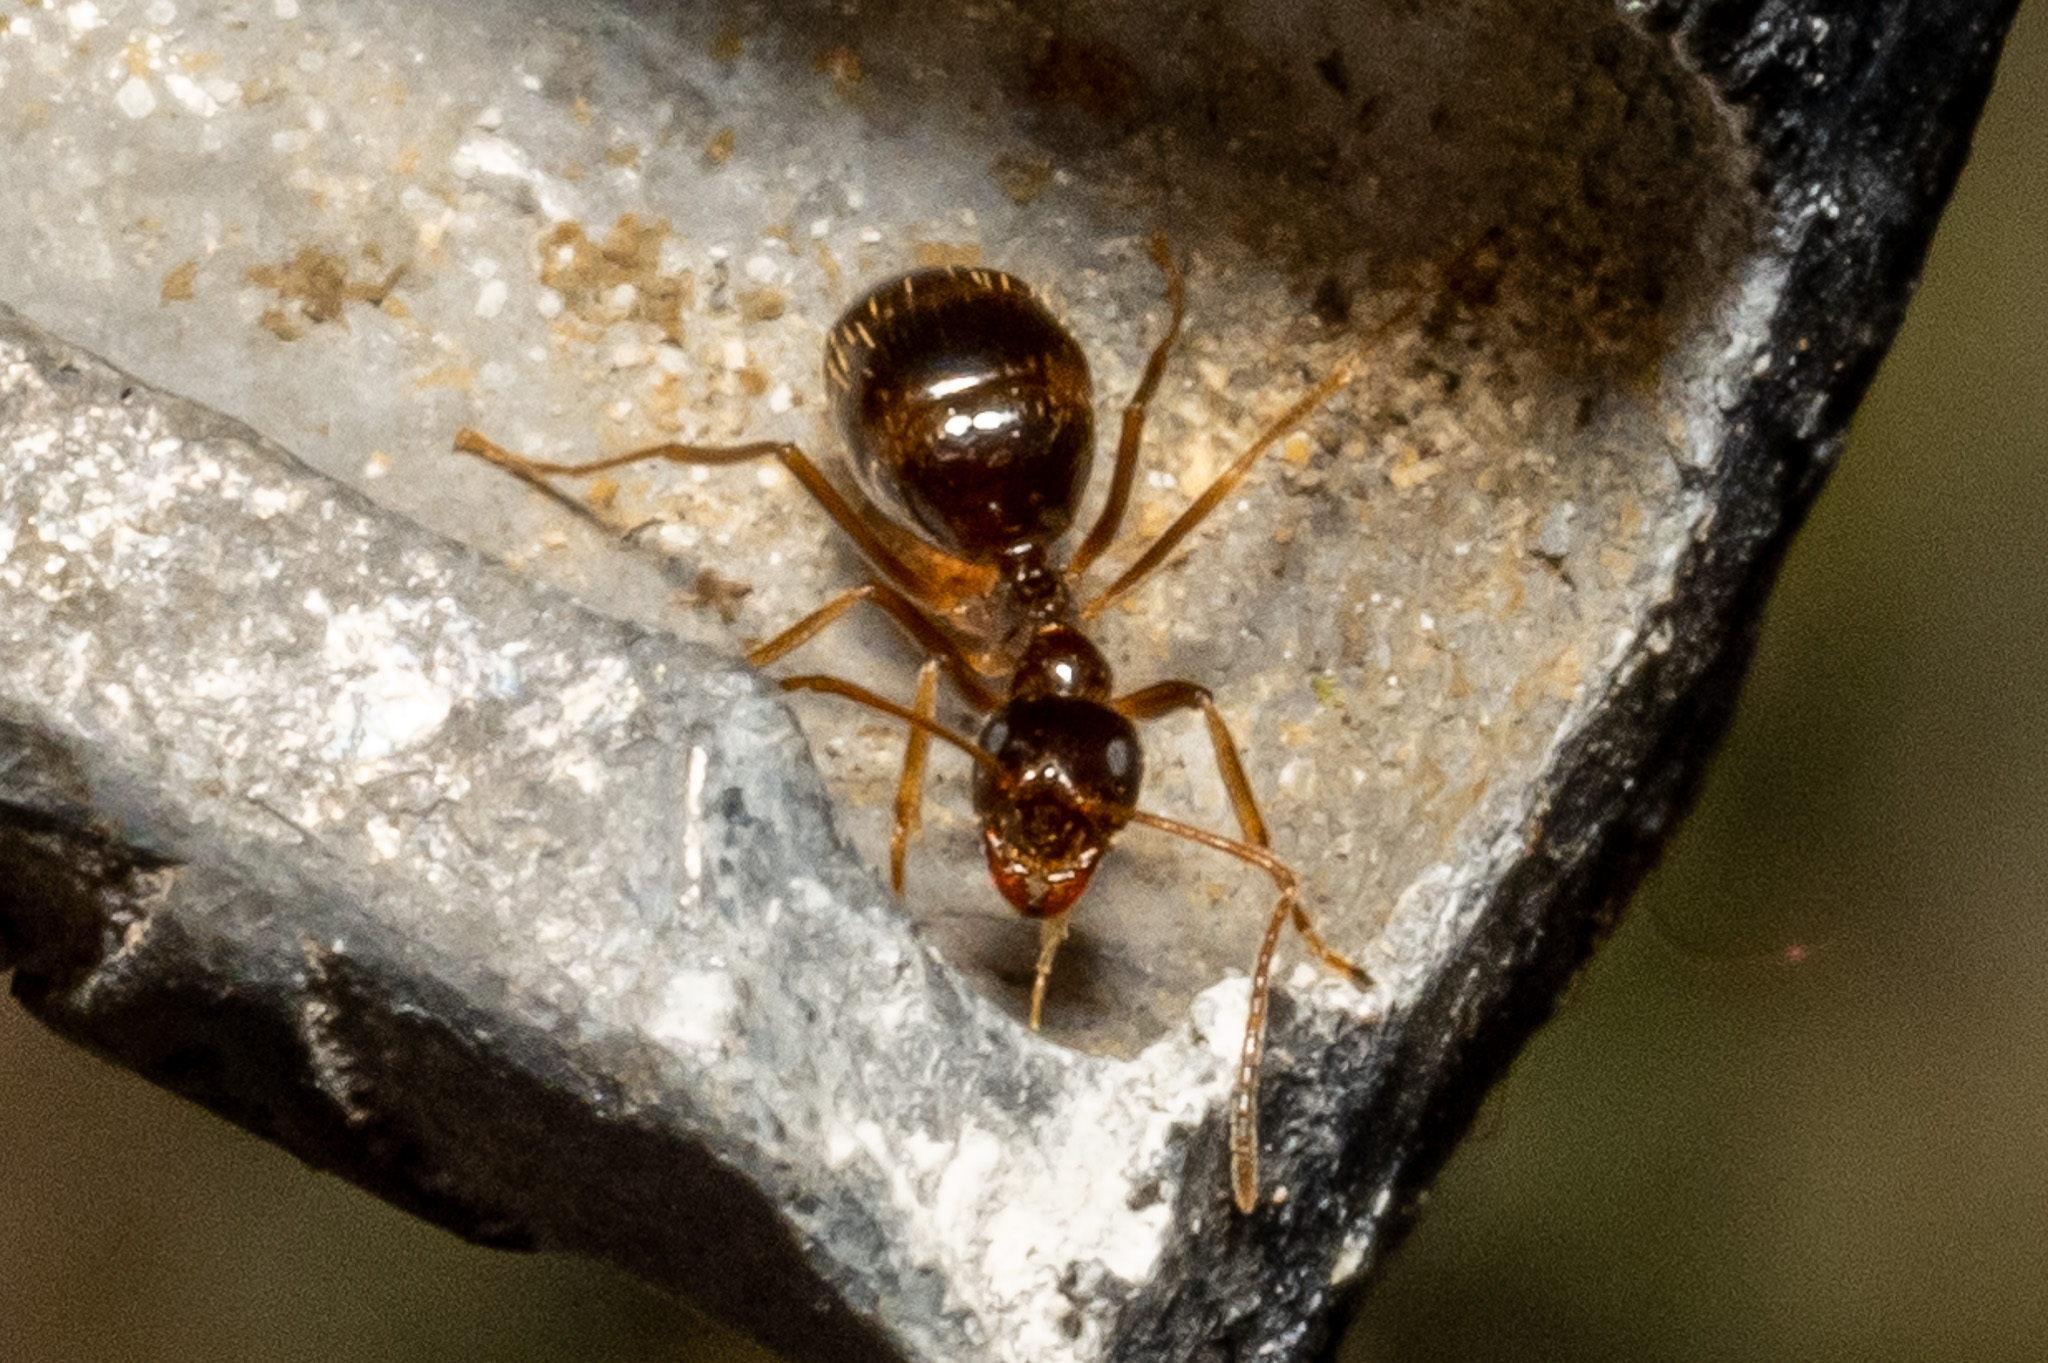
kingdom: Animalia
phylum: Arthropoda
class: Insecta
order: Hymenoptera
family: Formicidae
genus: Prenolepis
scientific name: Prenolepis imparis
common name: Small honey ant
